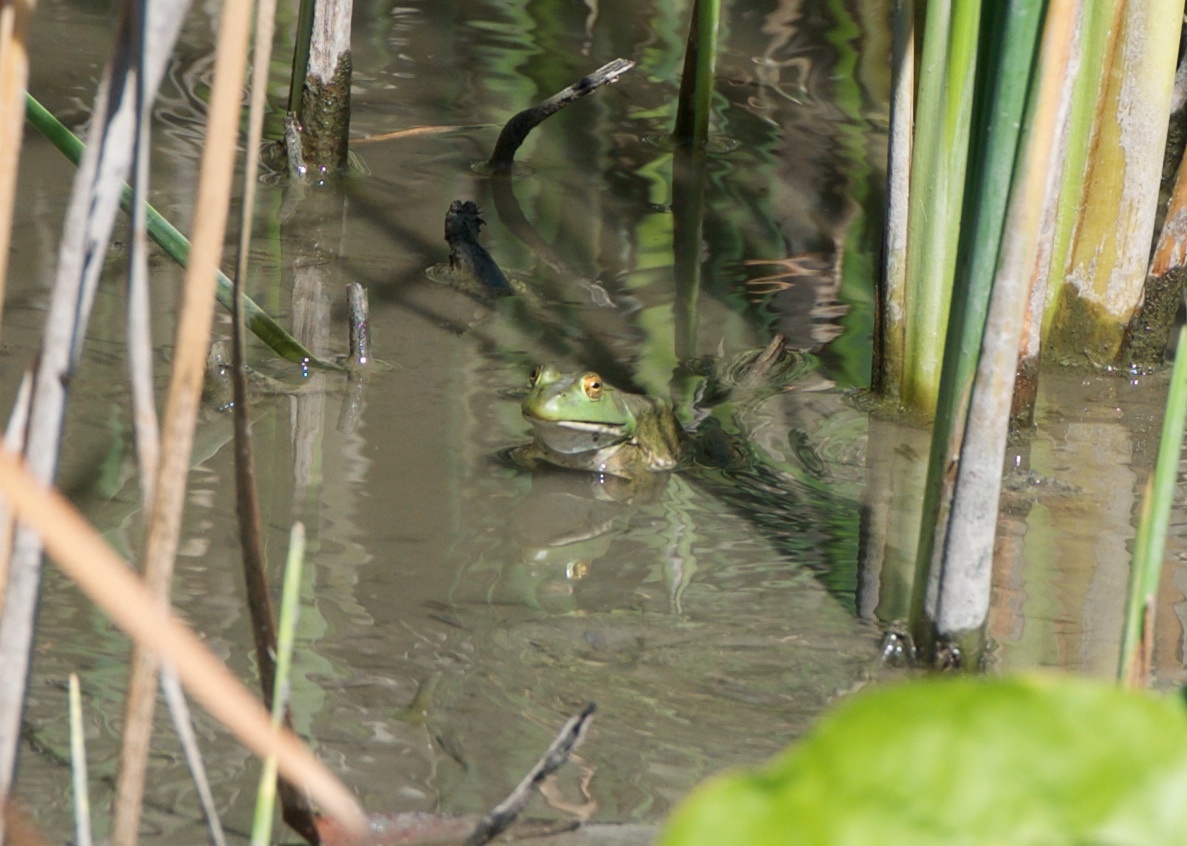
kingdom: Animalia
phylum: Chordata
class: Amphibia
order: Anura
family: Ranidae
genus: Lithobates
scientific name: Lithobates catesbeianus
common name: American bullfrog
